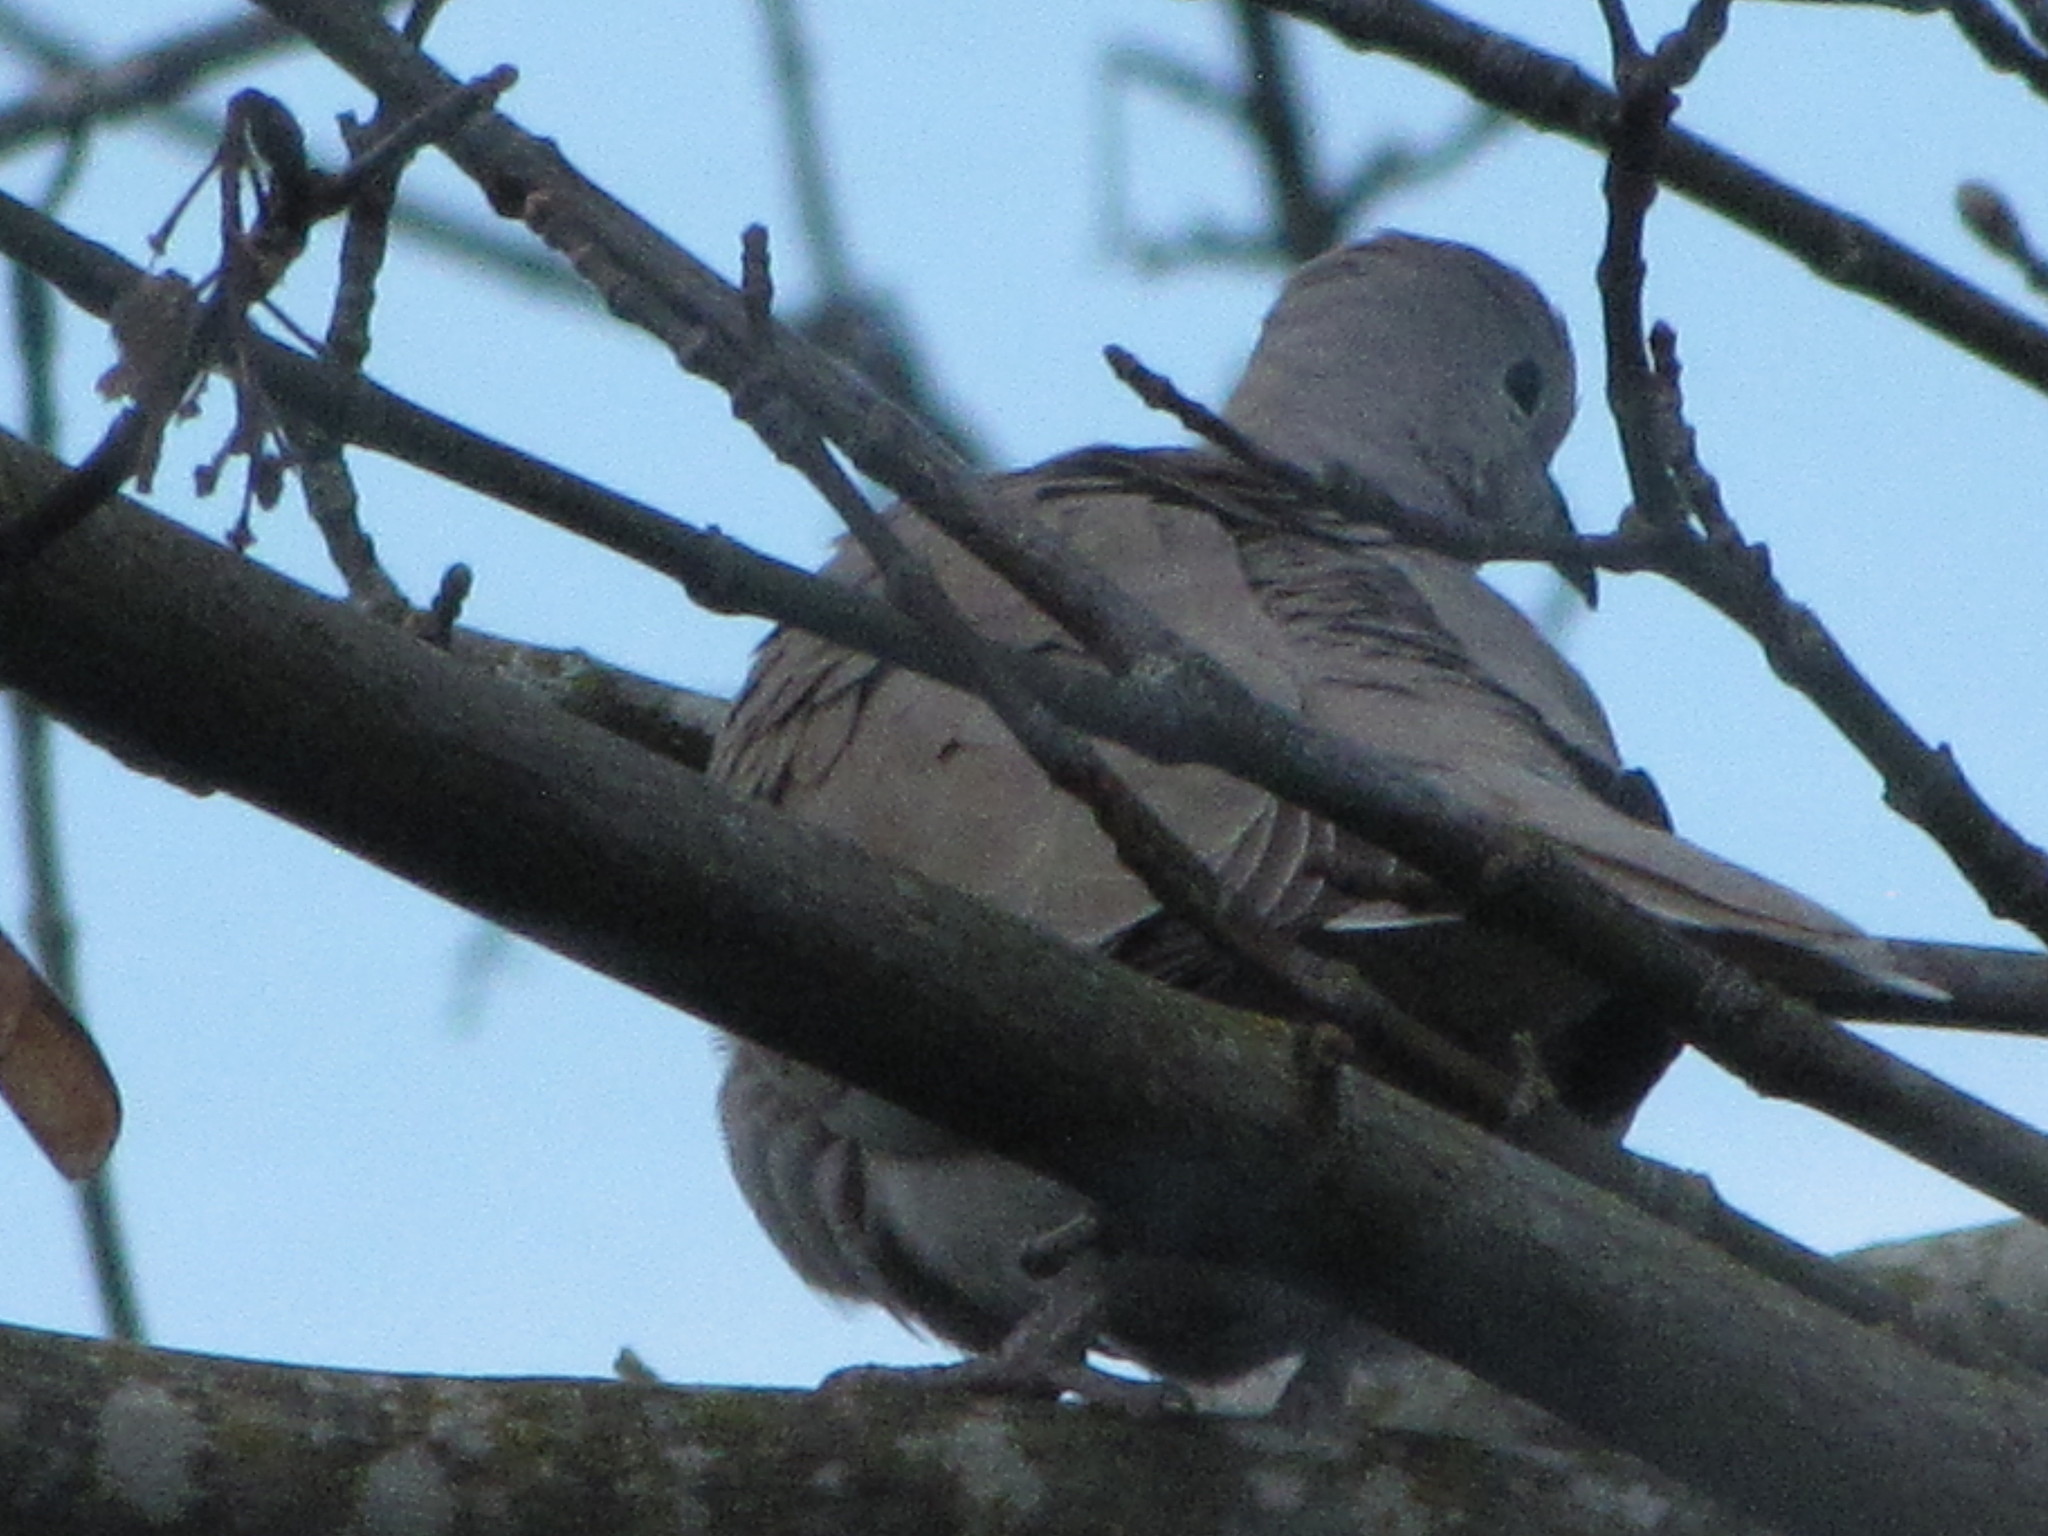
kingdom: Animalia
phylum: Chordata
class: Aves
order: Columbiformes
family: Columbidae
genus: Streptopelia
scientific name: Streptopelia decaocto
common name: Eurasian collared dove
